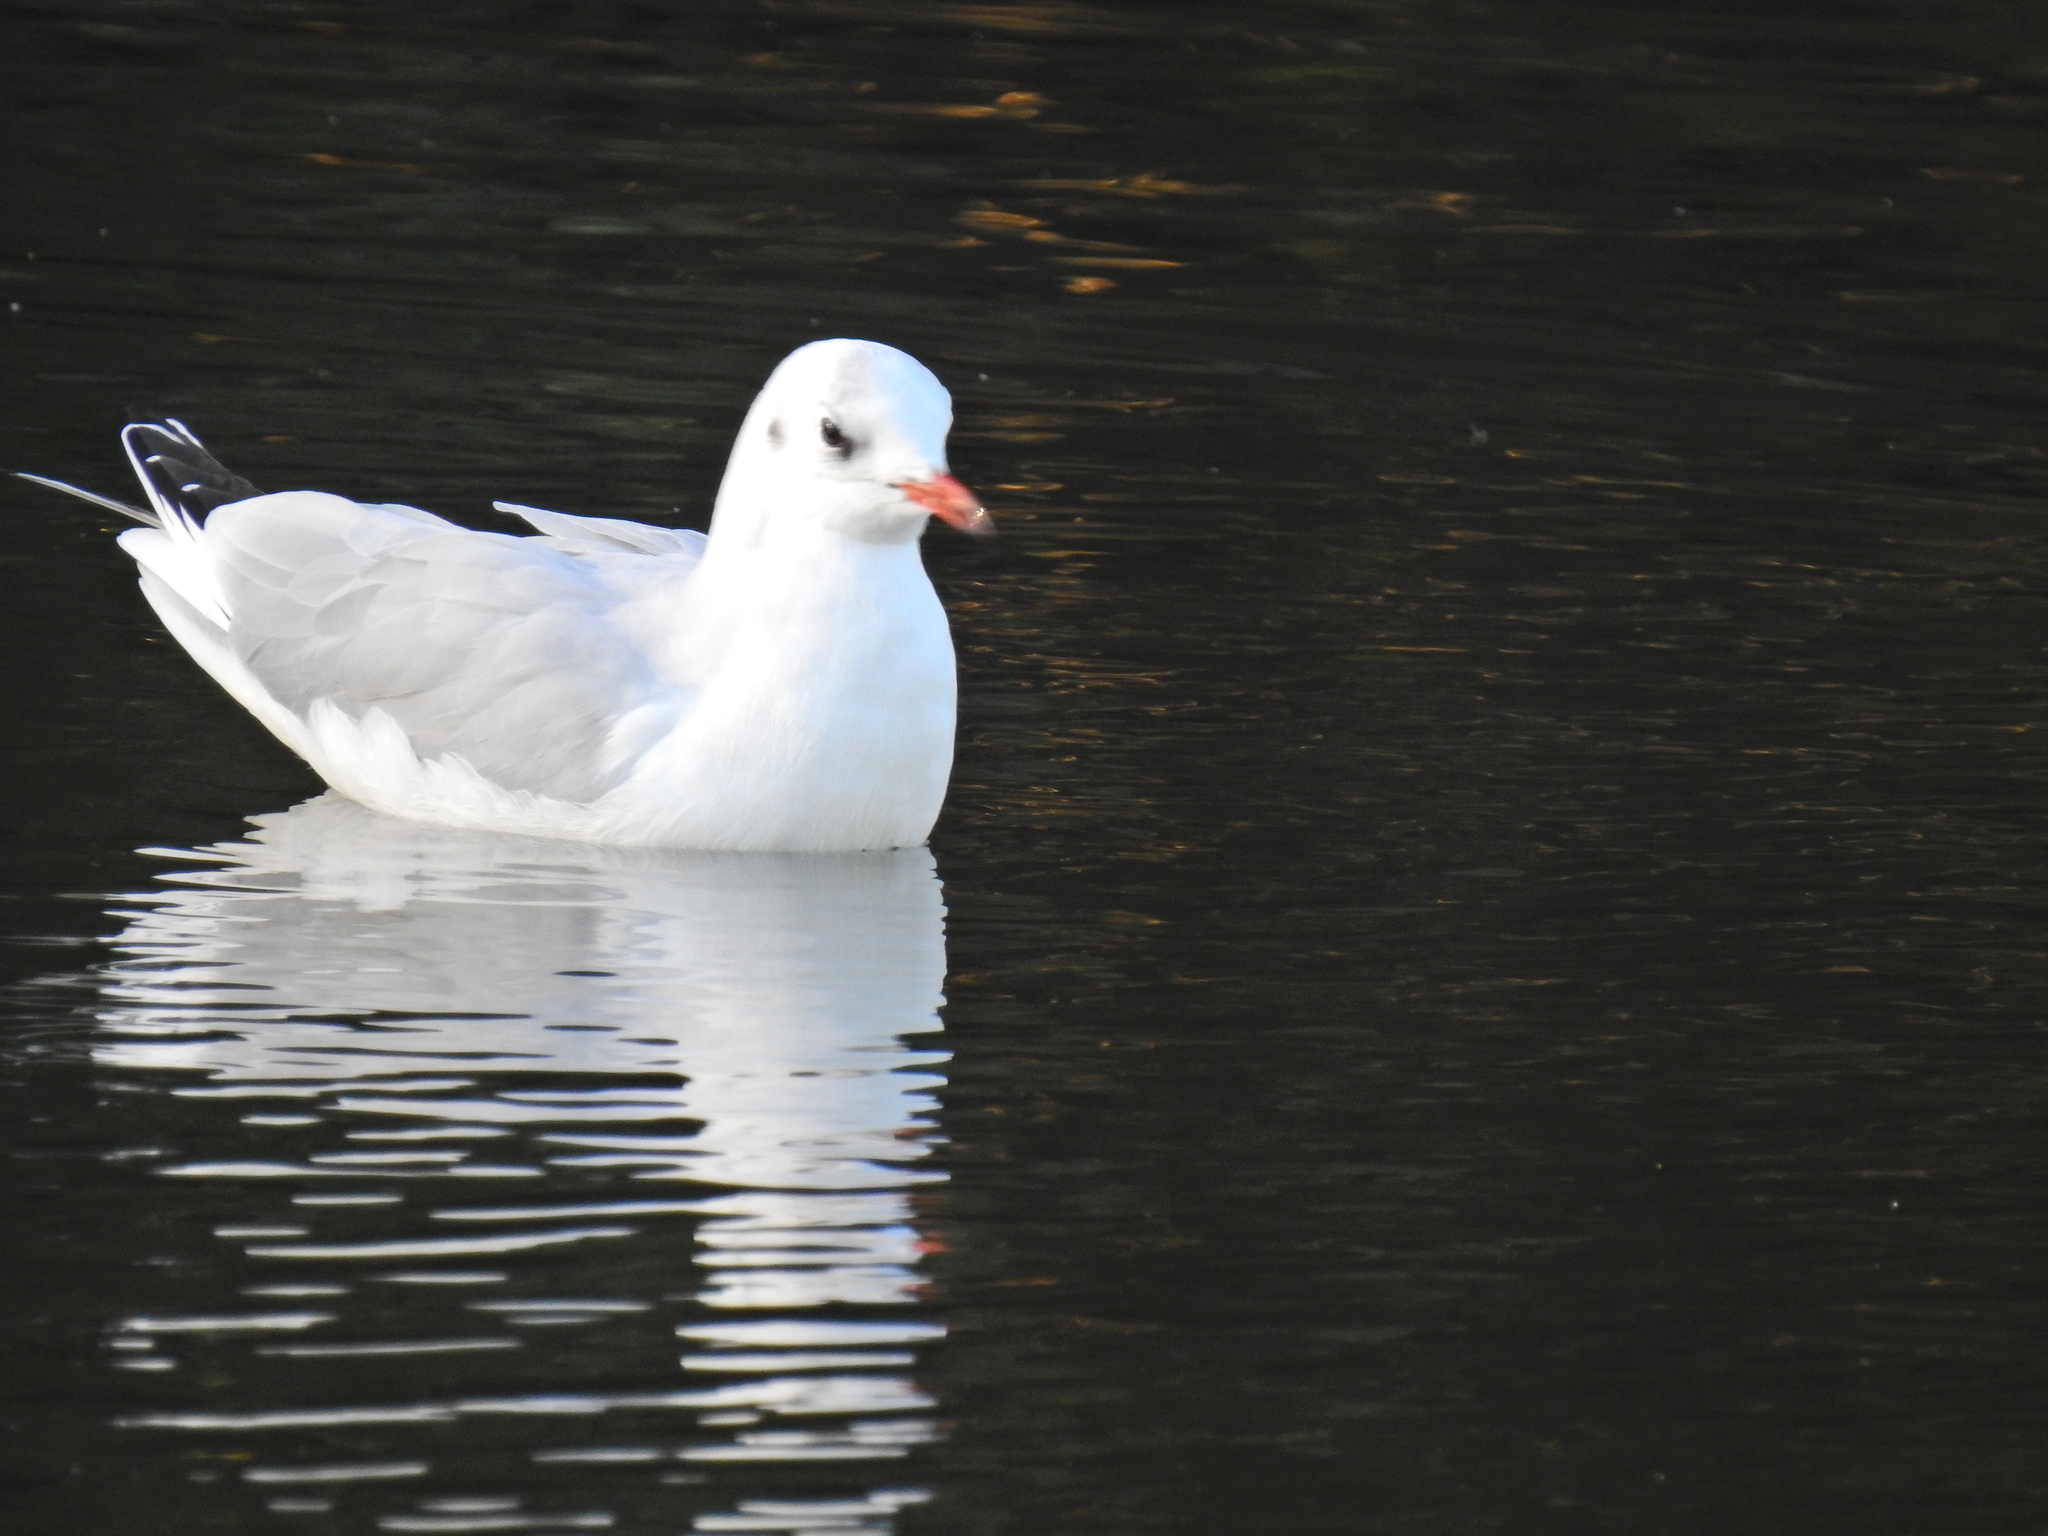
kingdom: Animalia
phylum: Chordata
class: Aves
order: Charadriiformes
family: Laridae
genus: Chroicocephalus
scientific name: Chroicocephalus ridibundus
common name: Black-headed gull
